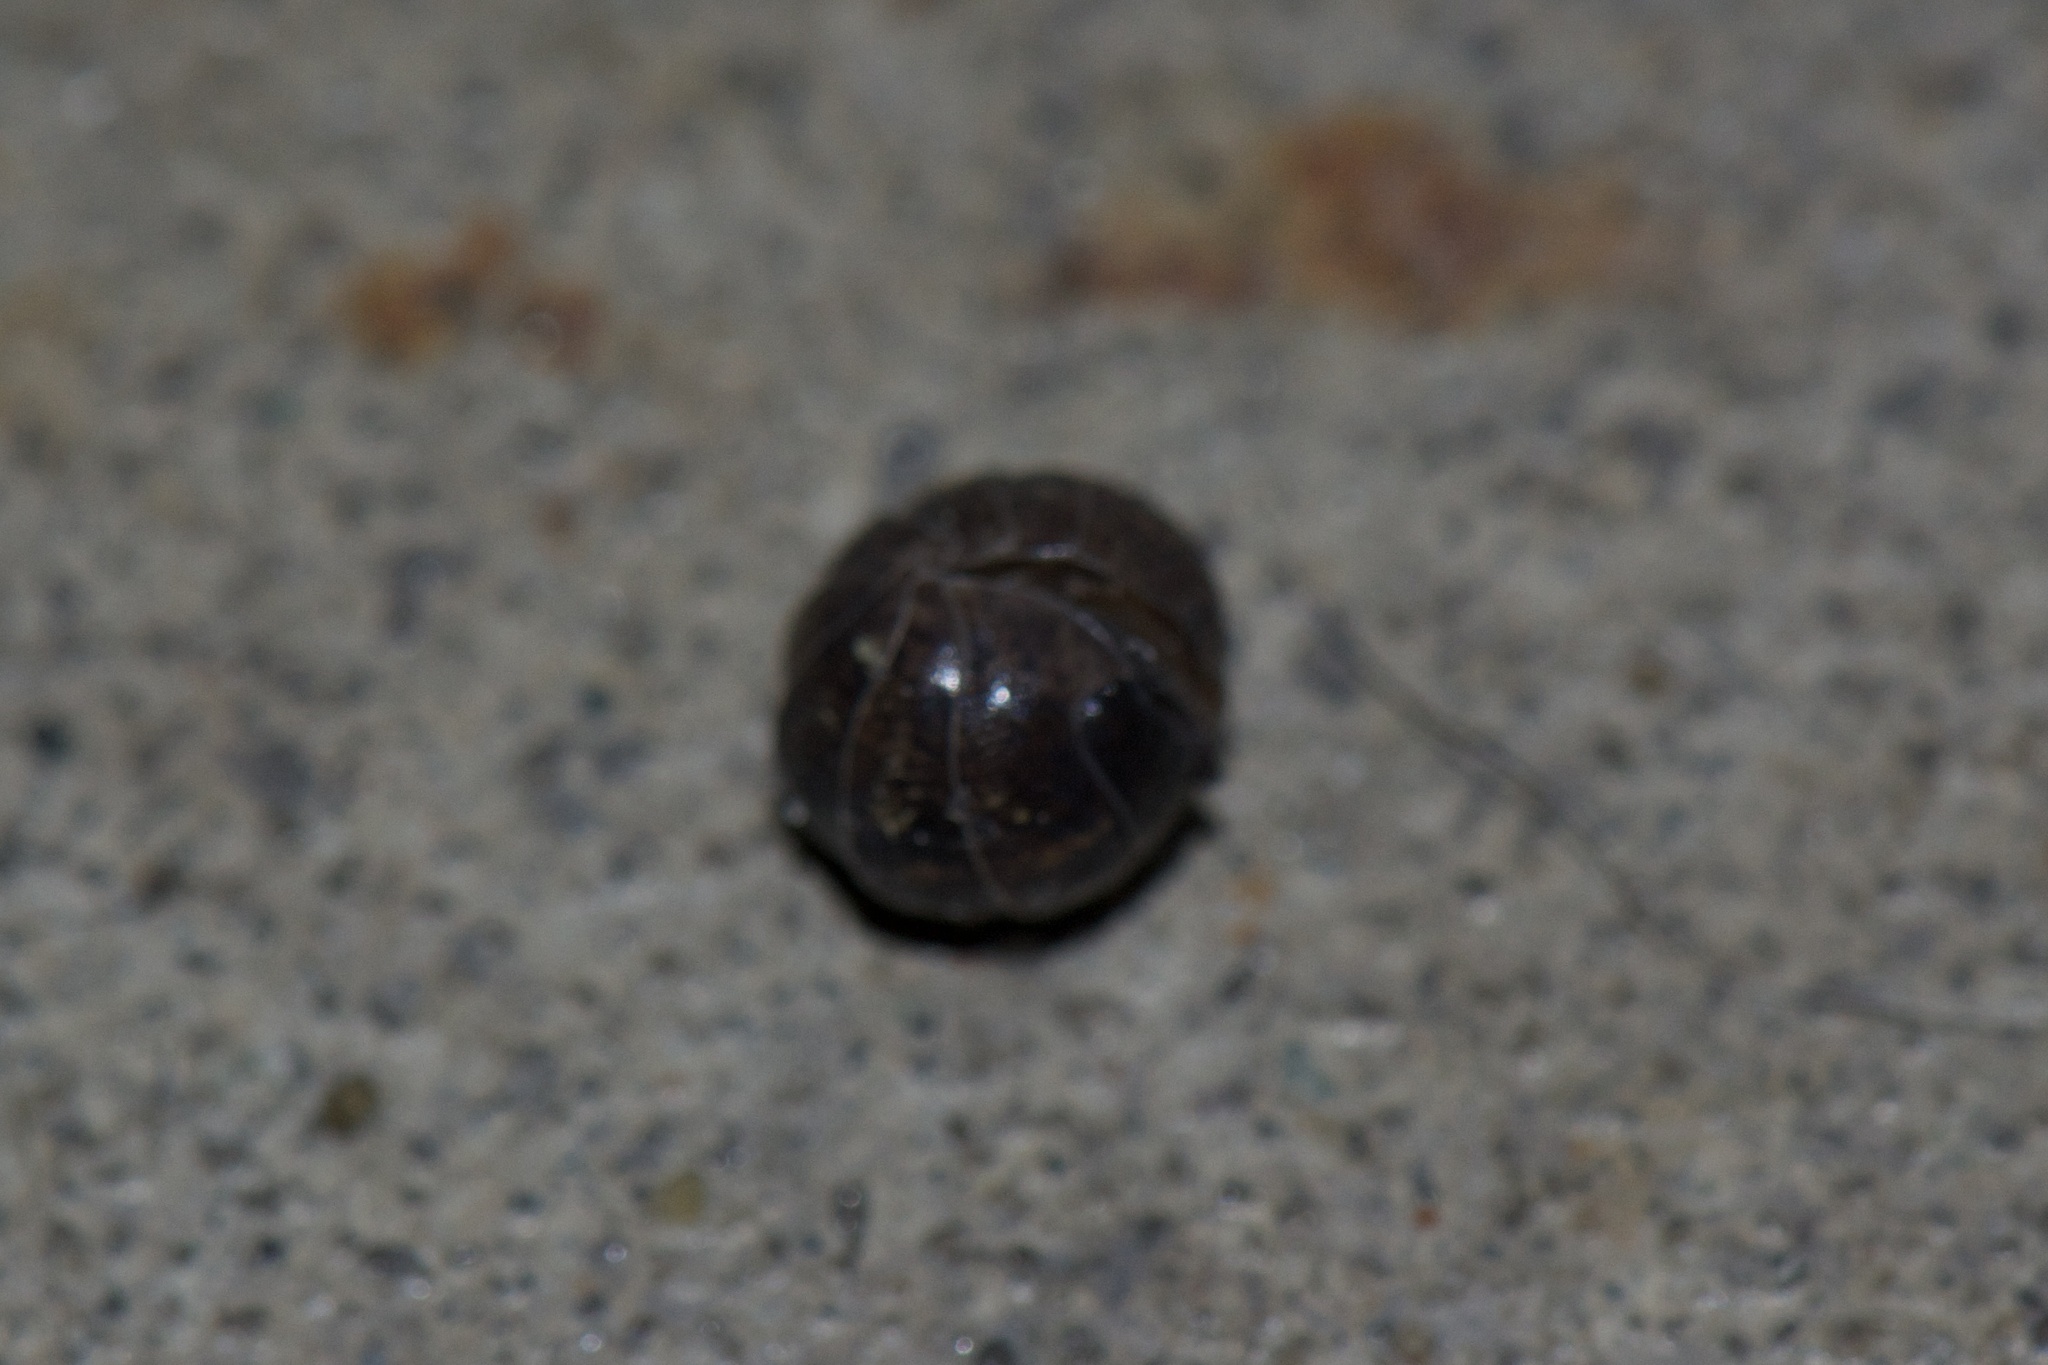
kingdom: Animalia
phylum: Arthropoda
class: Malacostraca
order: Isopoda
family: Armadillidiidae
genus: Armadillidium
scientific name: Armadillidium vulgare
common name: Common pill woodlouse
